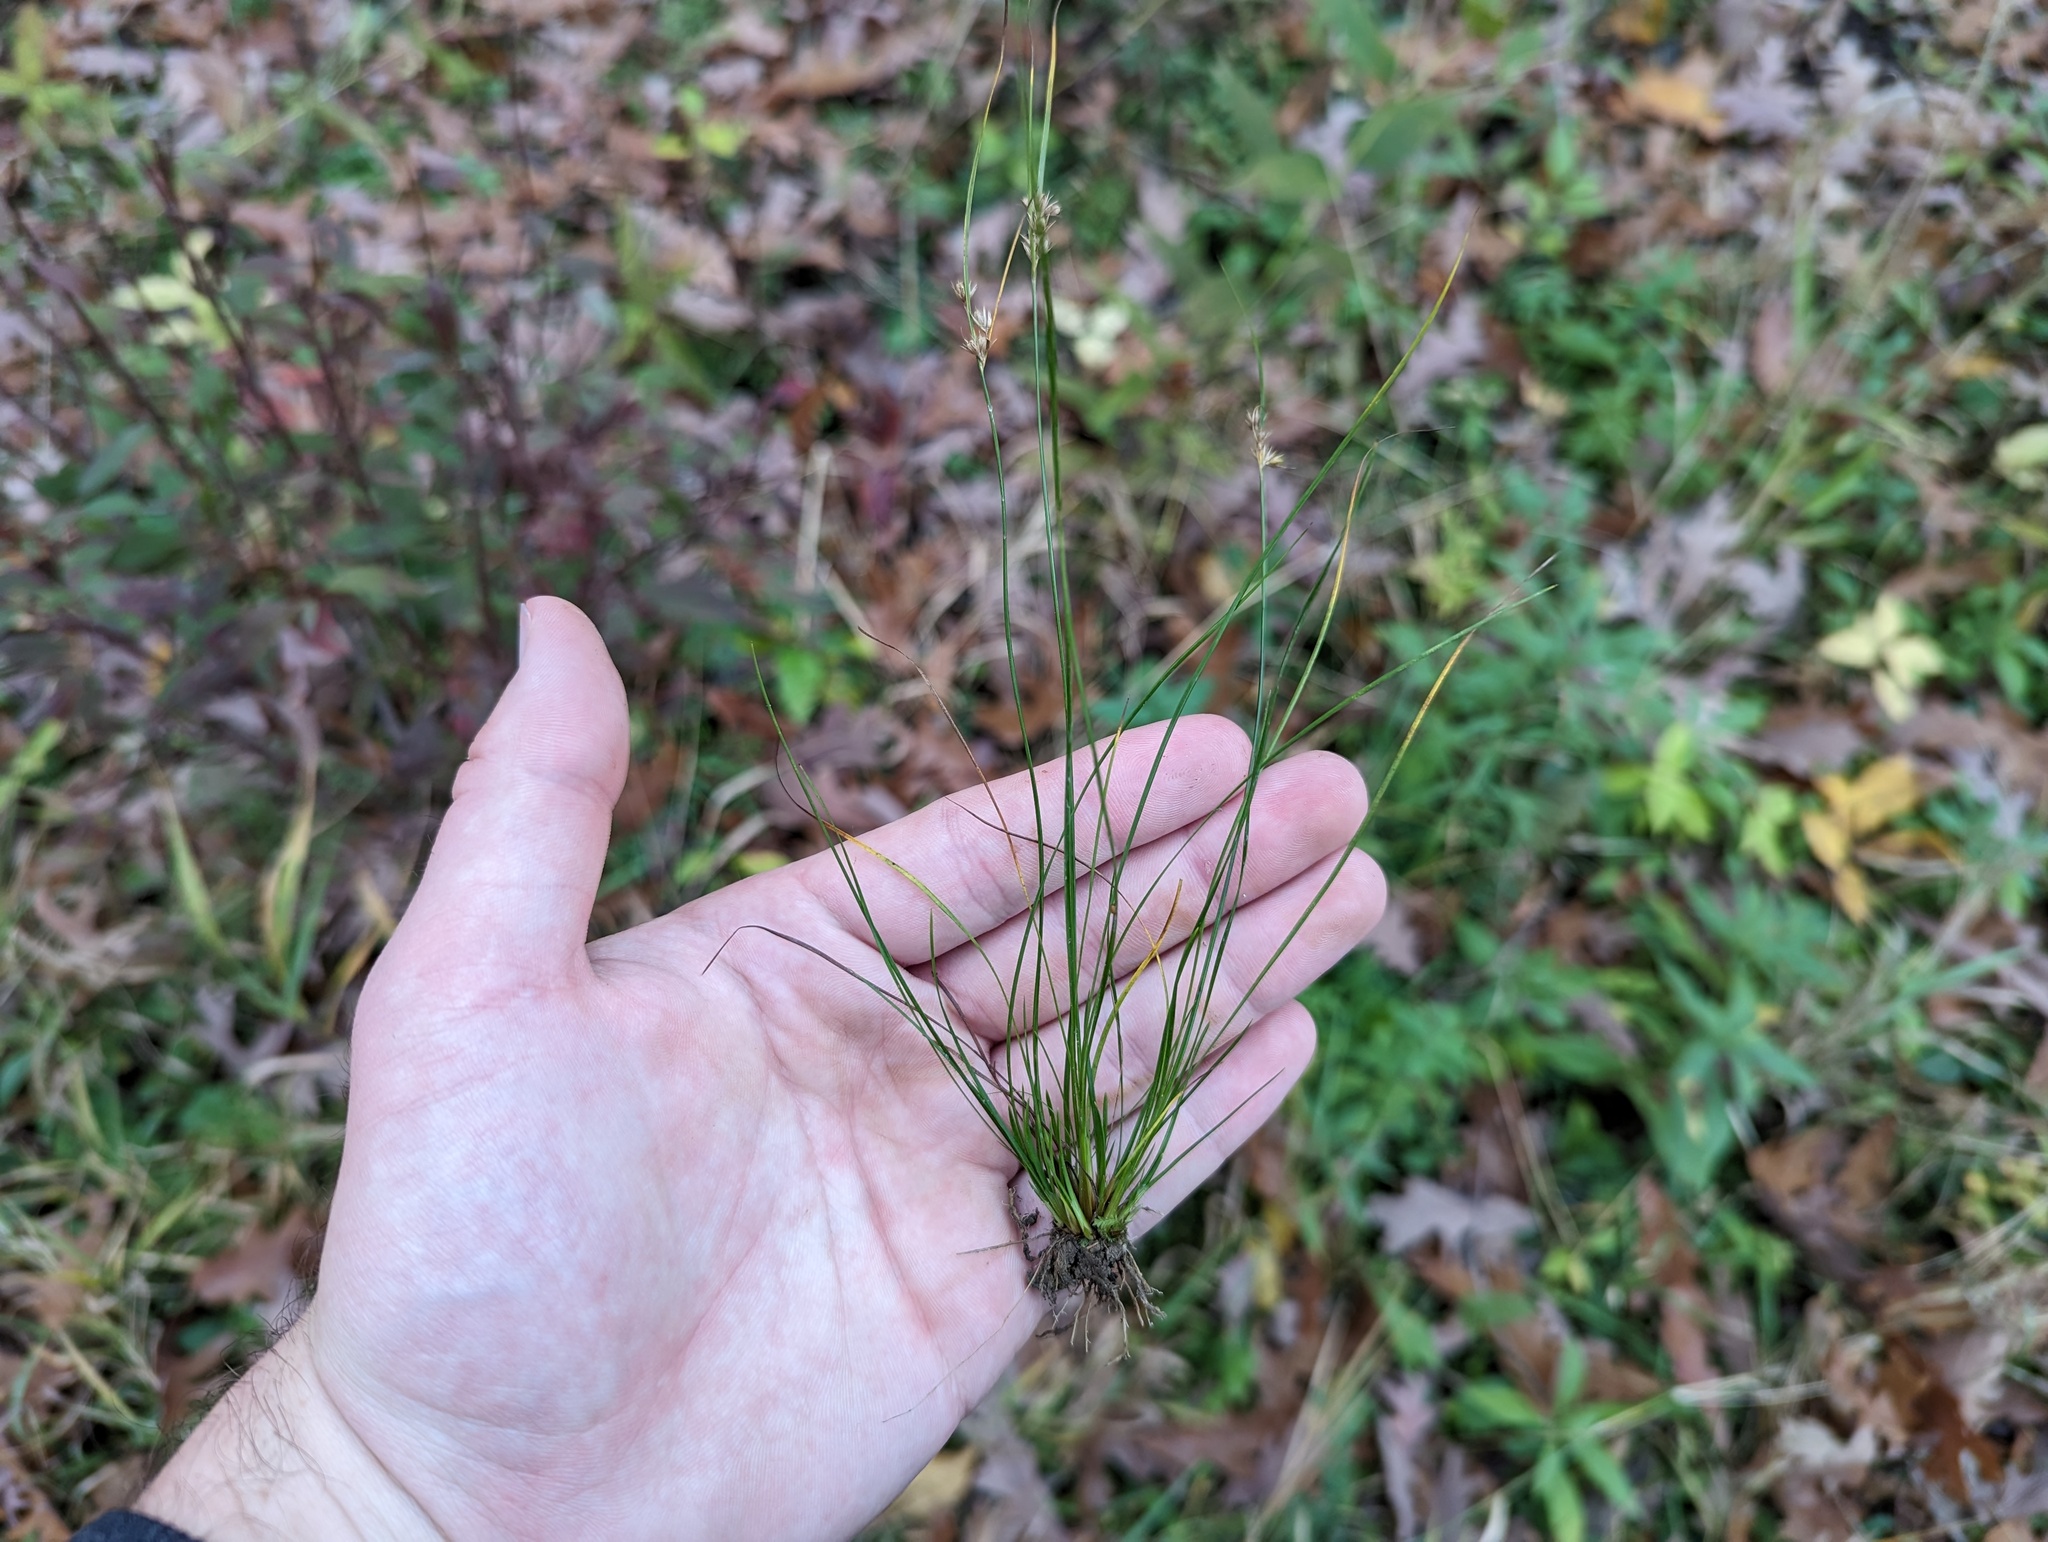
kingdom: Plantae
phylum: Tracheophyta
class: Liliopsida
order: Poales
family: Juncaceae
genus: Juncus
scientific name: Juncus tenuis
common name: Slender rush
